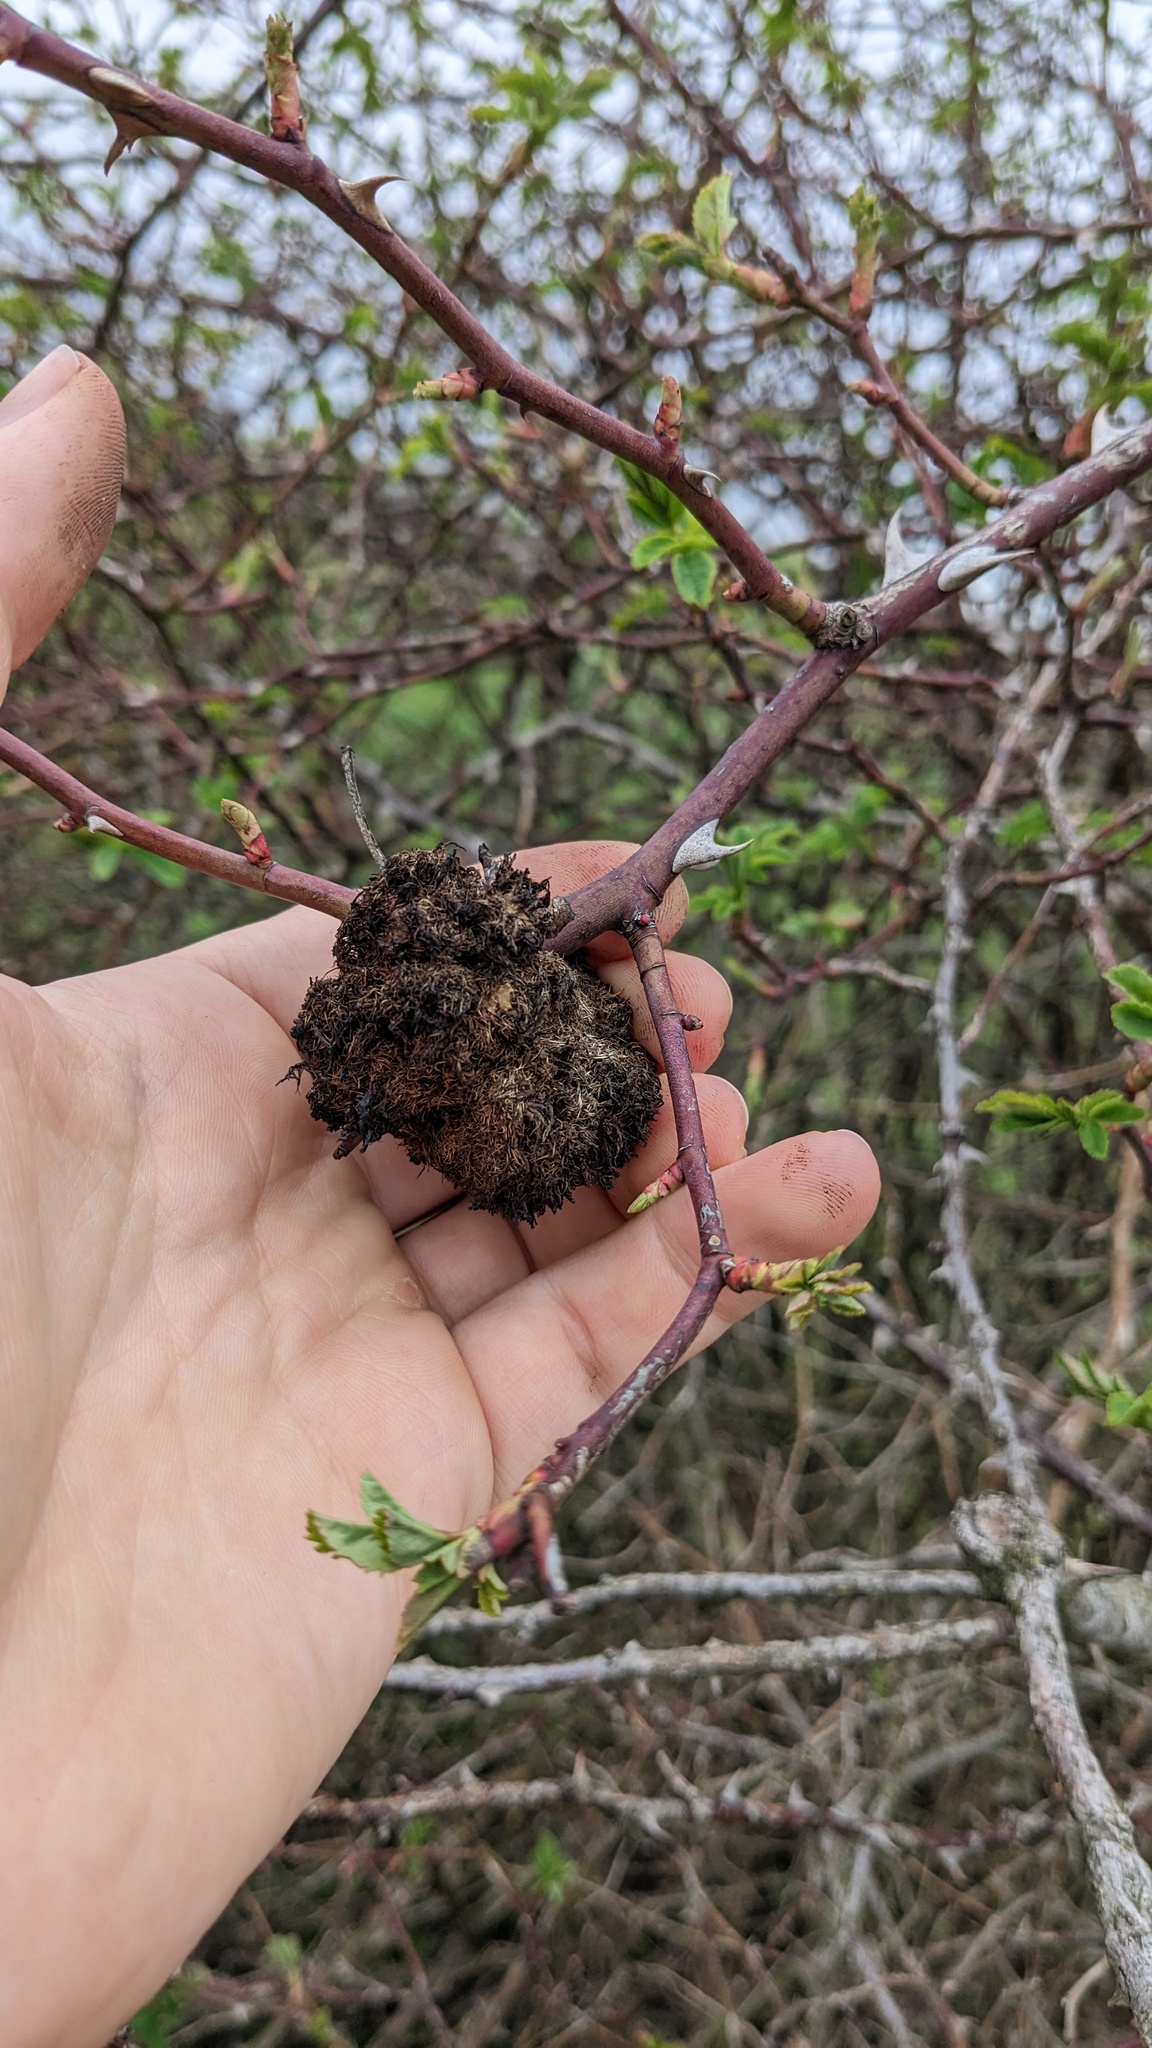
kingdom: Animalia
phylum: Arthropoda
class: Insecta
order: Hymenoptera
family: Cynipidae
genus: Diplolepis
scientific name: Diplolepis rosae
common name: Bedeguar gall
